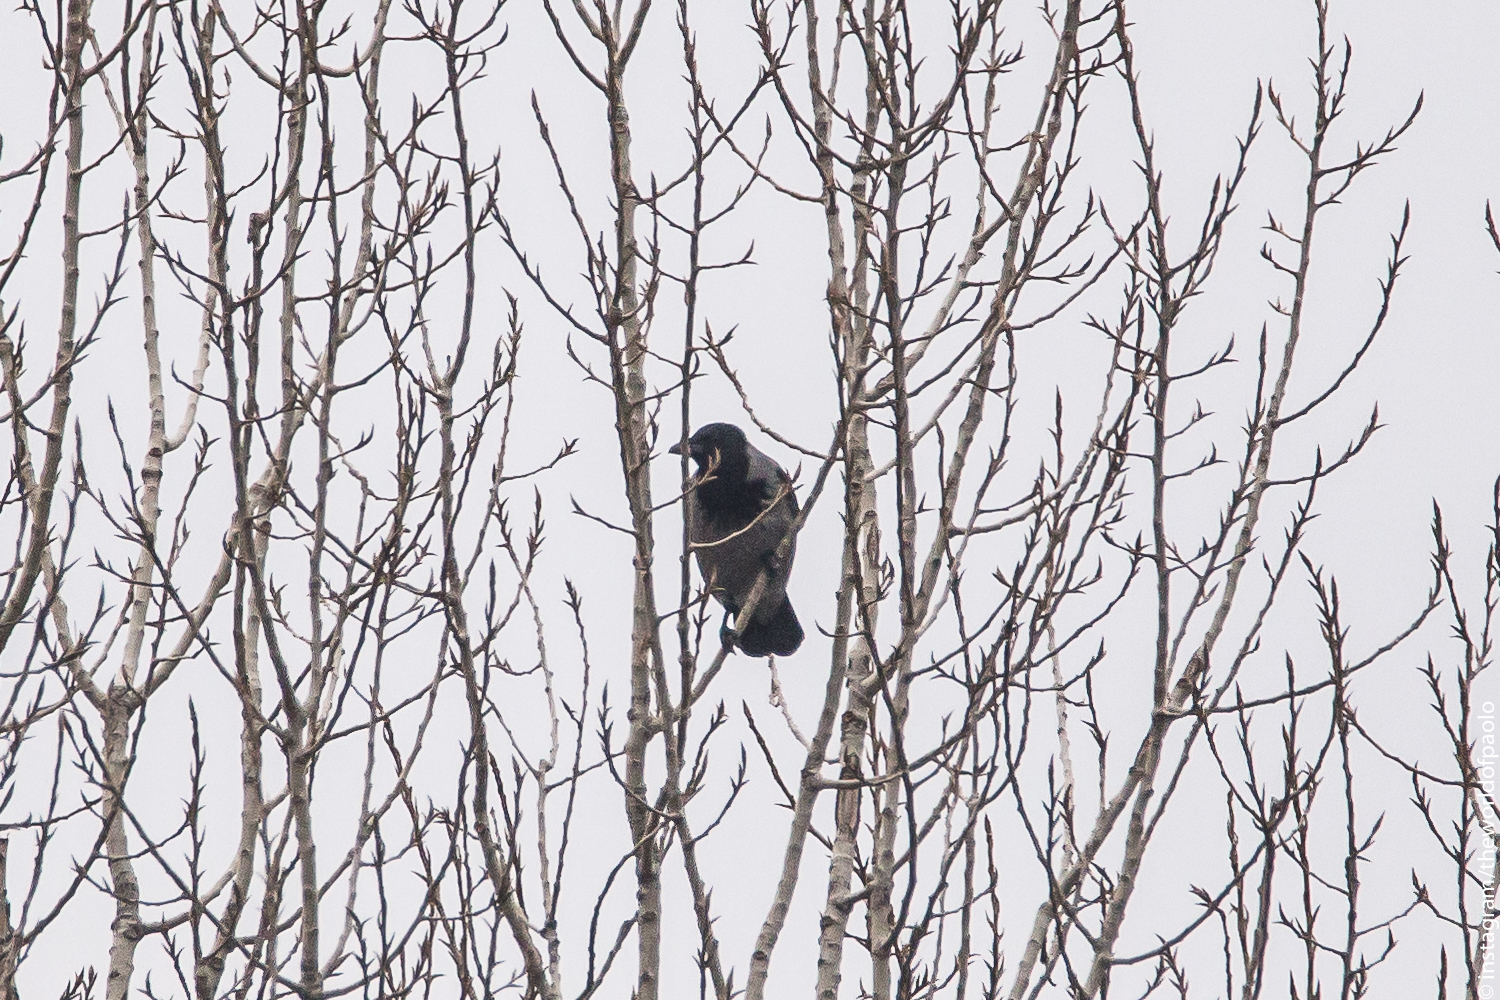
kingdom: Animalia
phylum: Chordata
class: Aves
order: Passeriformes
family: Corvidae
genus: Corvus
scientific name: Corvus cornix
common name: Hooded crow
